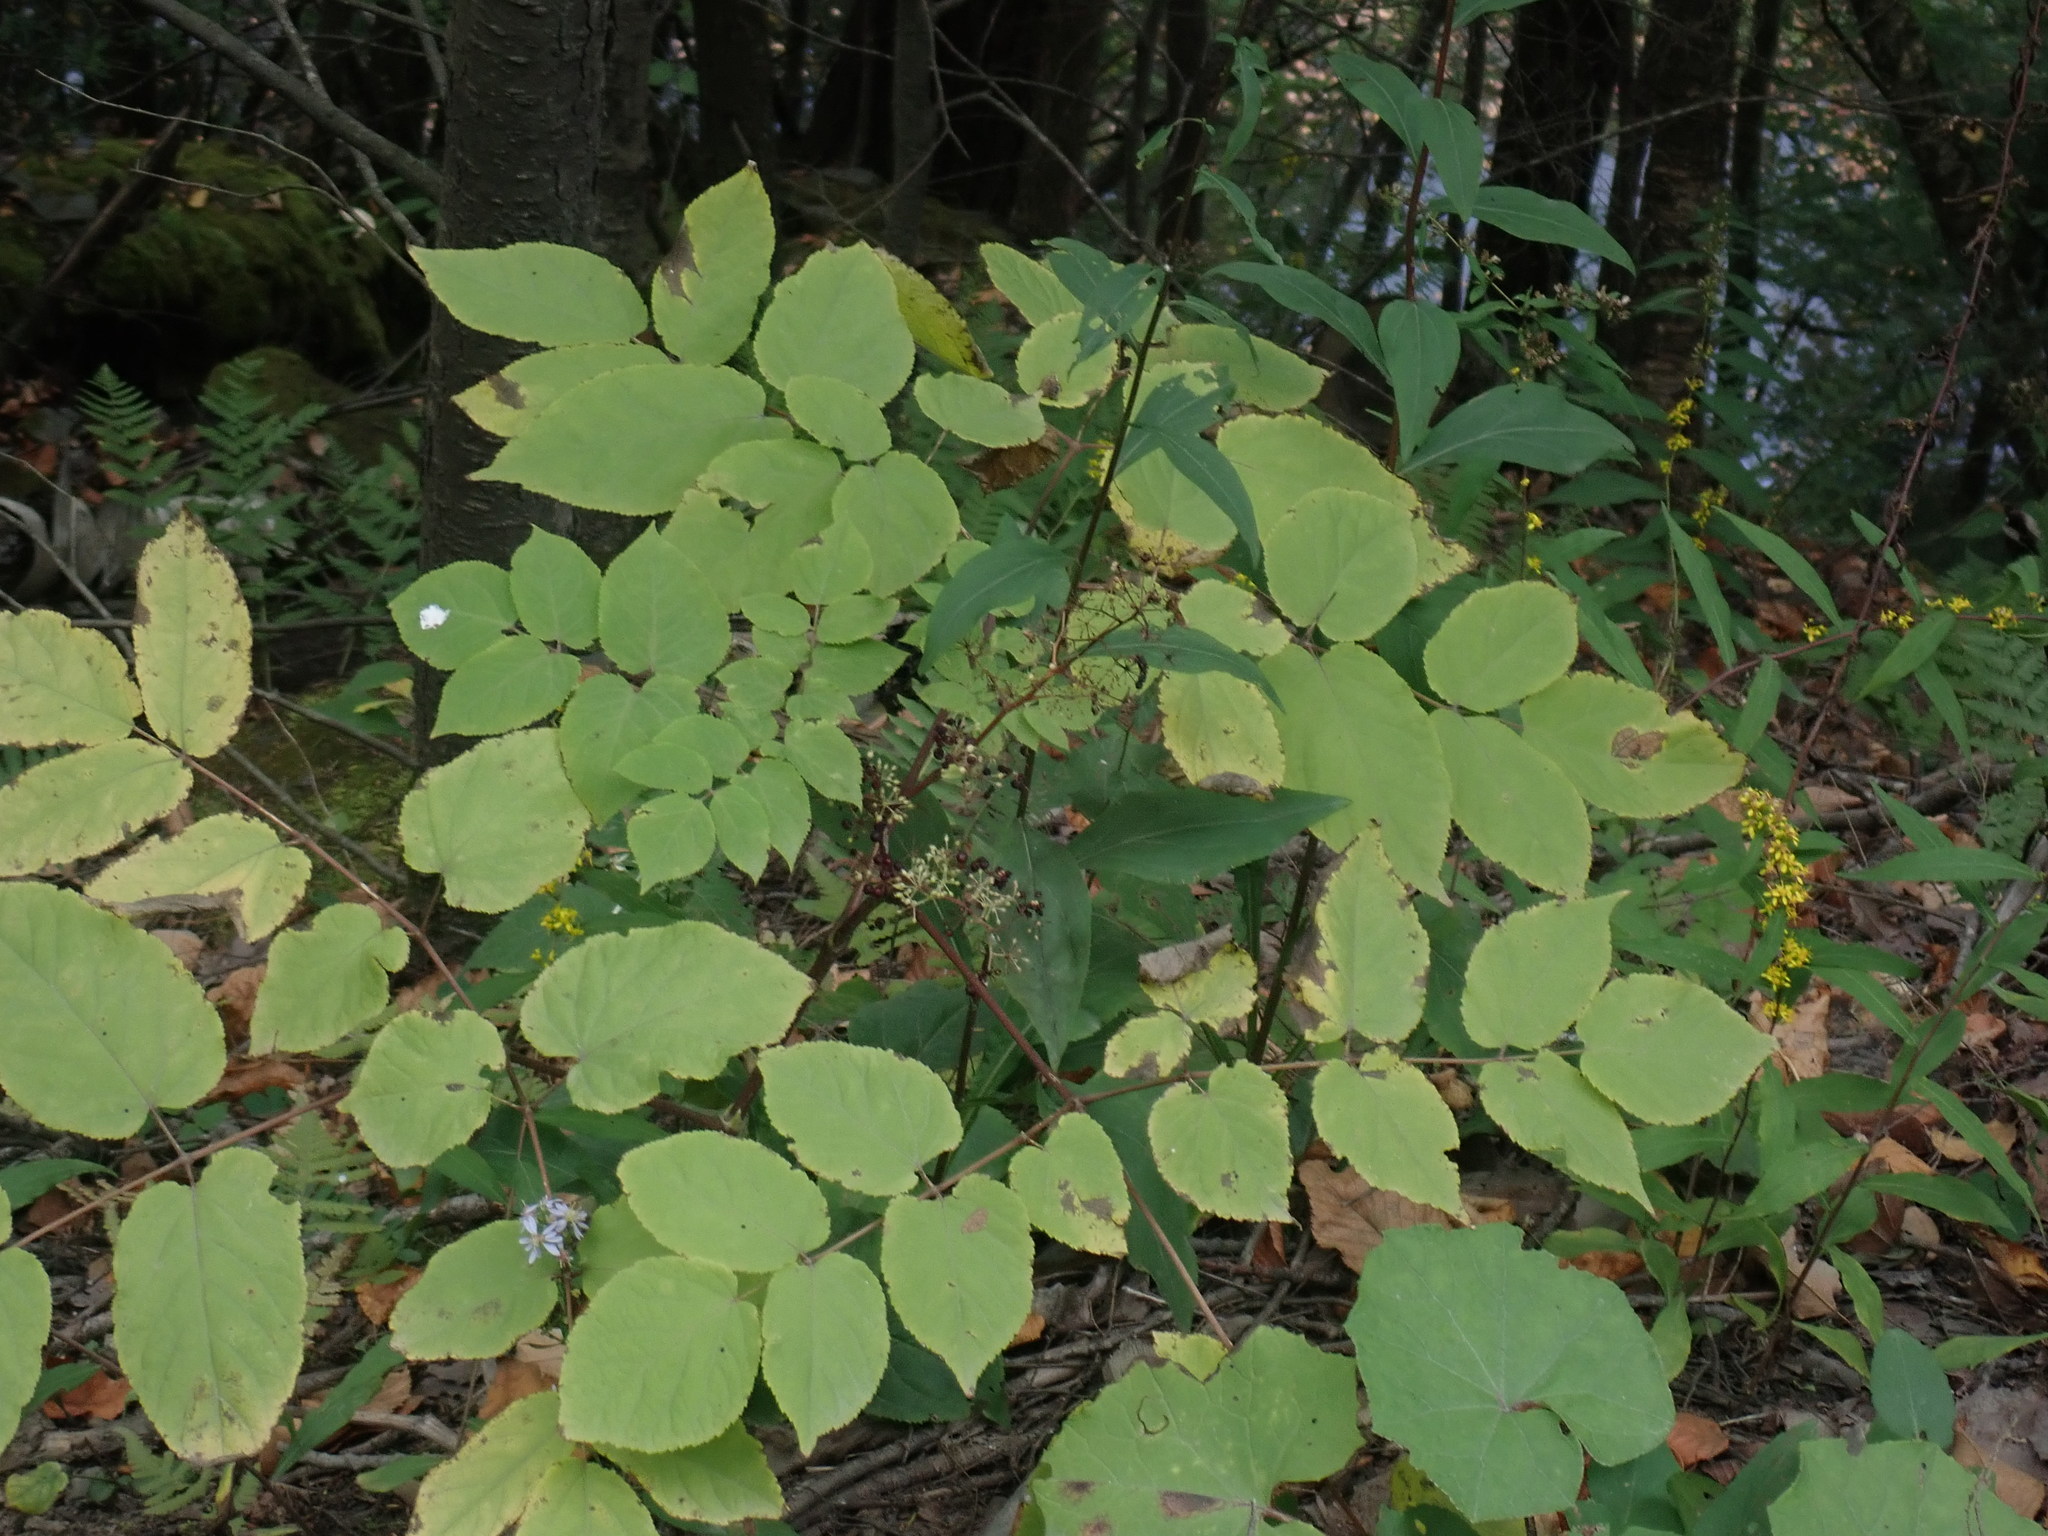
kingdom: Plantae
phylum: Tracheophyta
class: Magnoliopsida
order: Apiales
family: Araliaceae
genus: Aralia
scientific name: Aralia racemosa
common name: American-spikenard
